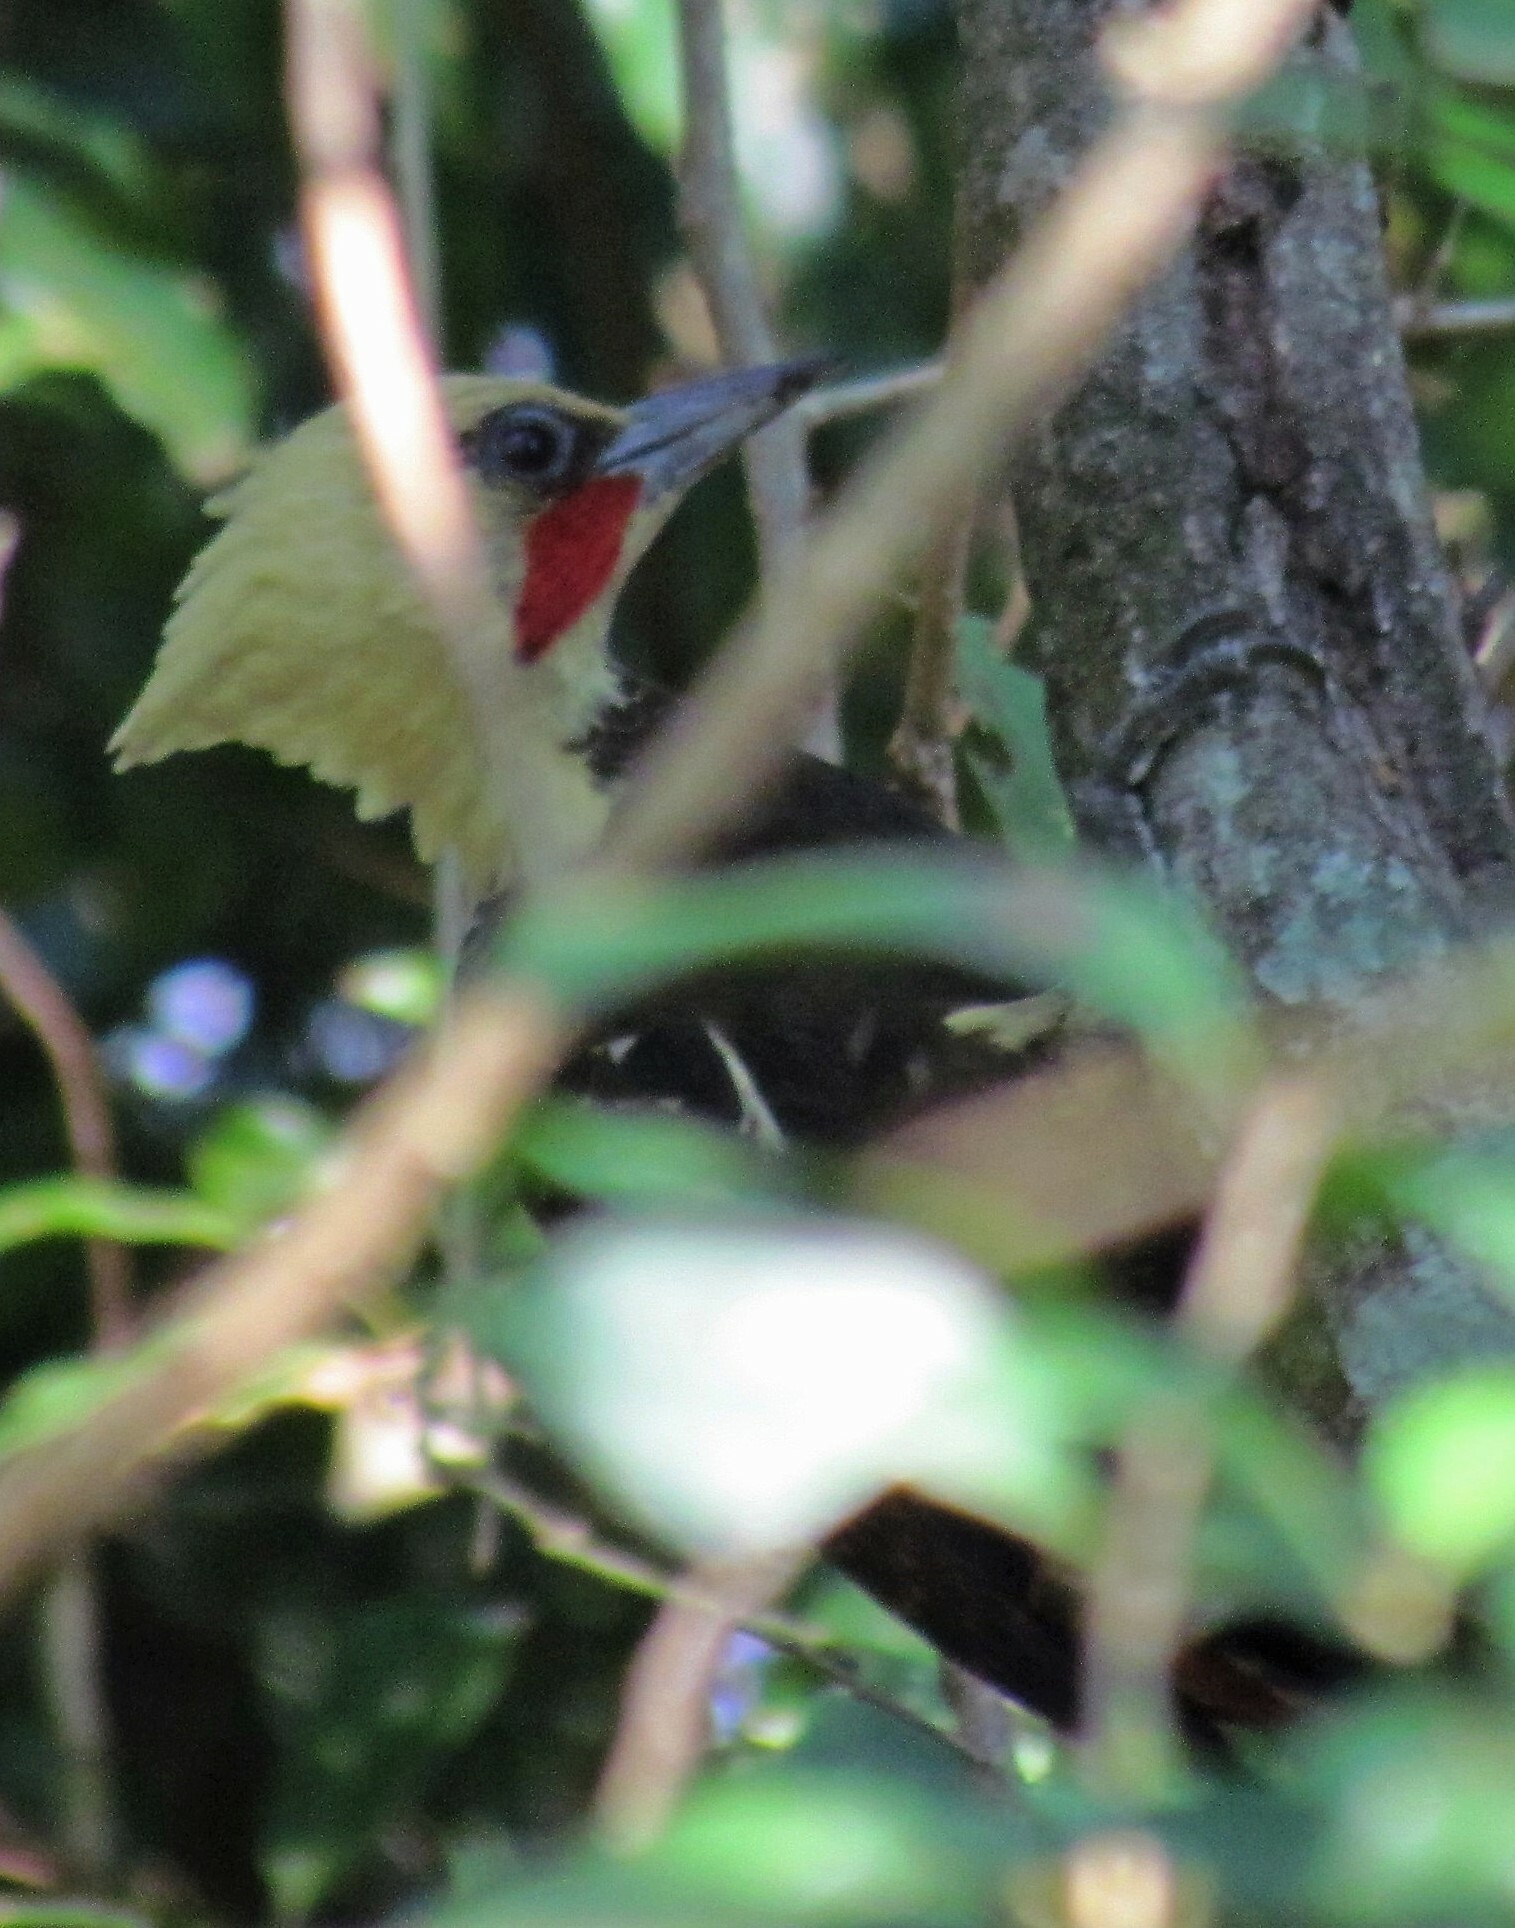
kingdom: Animalia
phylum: Chordata
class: Aves
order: Piciformes
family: Picidae
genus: Celeus
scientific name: Celeus lugubris
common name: Pale-crested woodpecker
